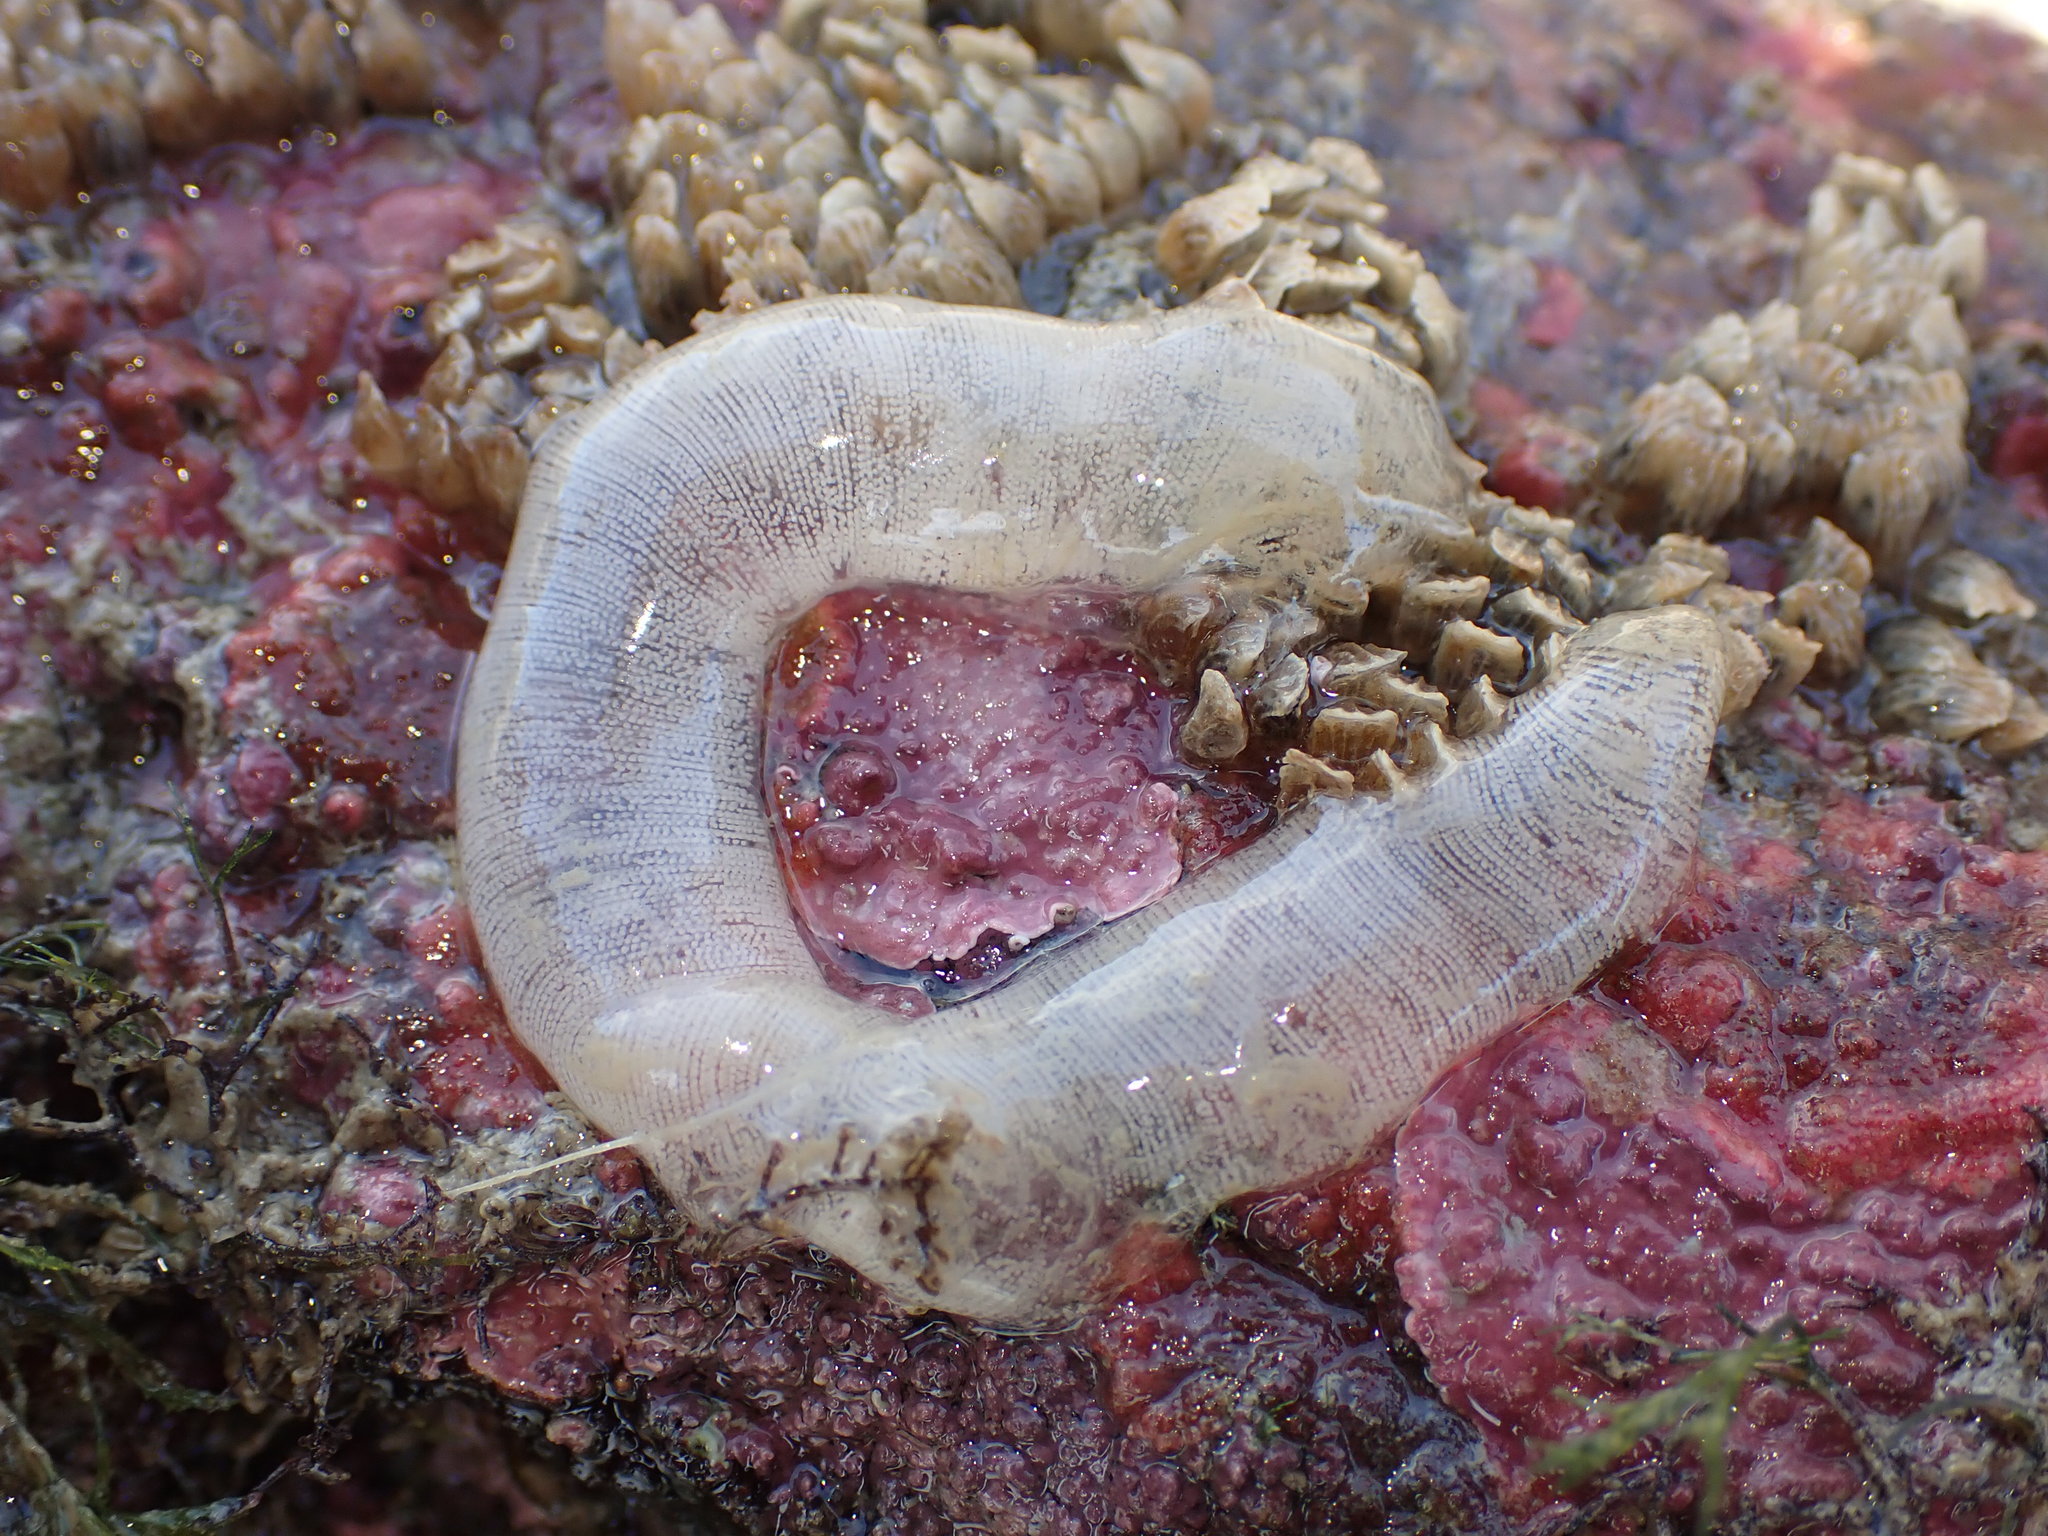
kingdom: Animalia
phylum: Mollusca
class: Gastropoda
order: Pleurobranchida
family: Pleurobranchaeidae
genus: Pleurobranchaea
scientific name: Pleurobranchaea maculata
